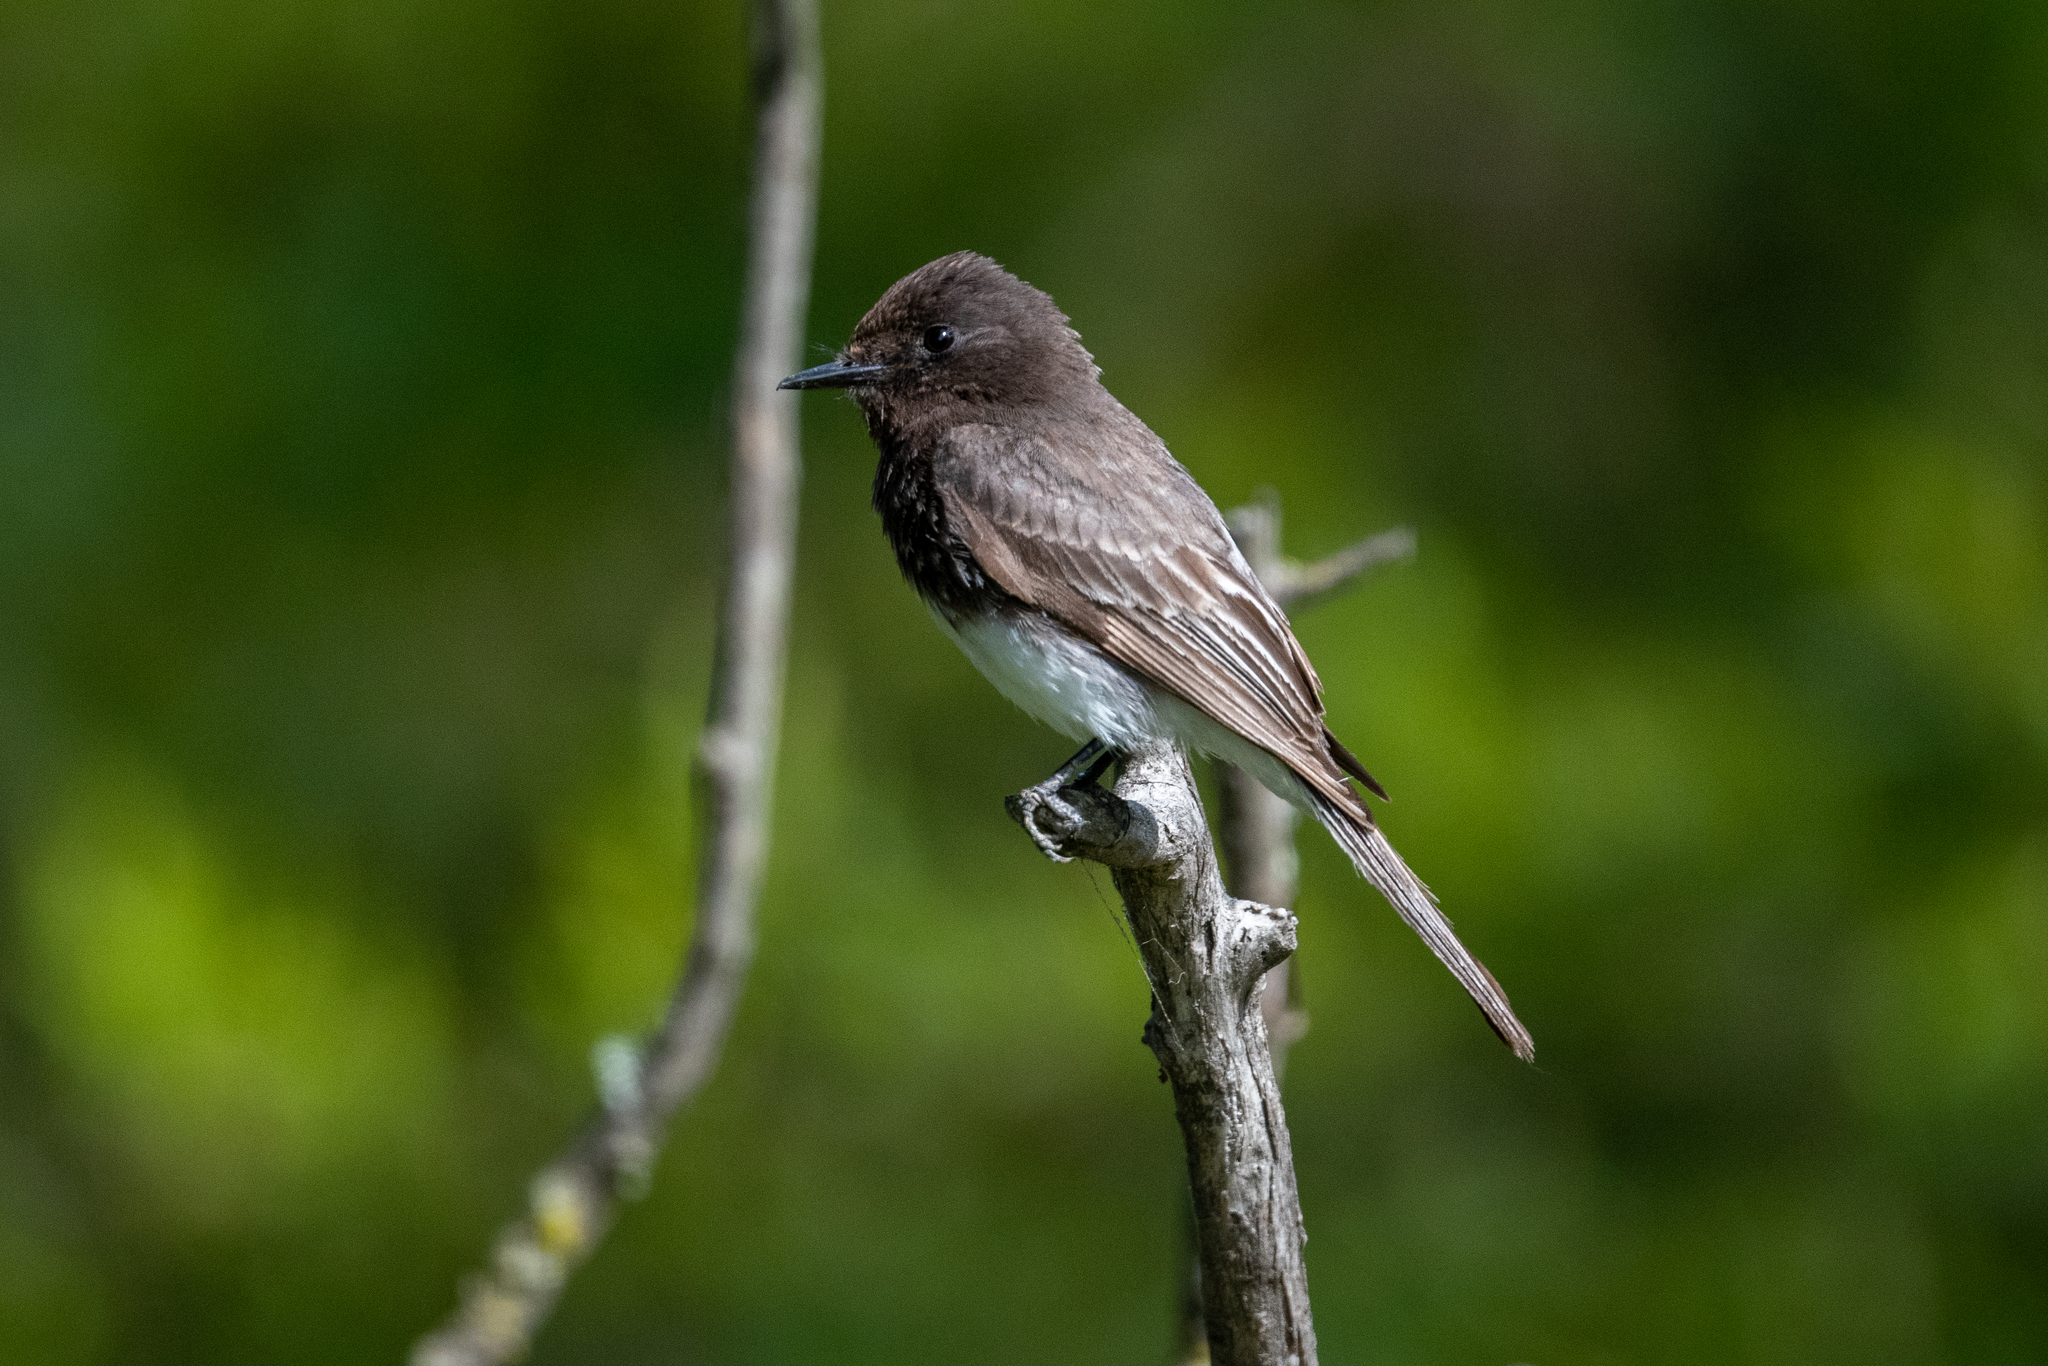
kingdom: Animalia
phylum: Chordata
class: Aves
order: Passeriformes
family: Tyrannidae
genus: Sayornis
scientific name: Sayornis nigricans
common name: Black phoebe
